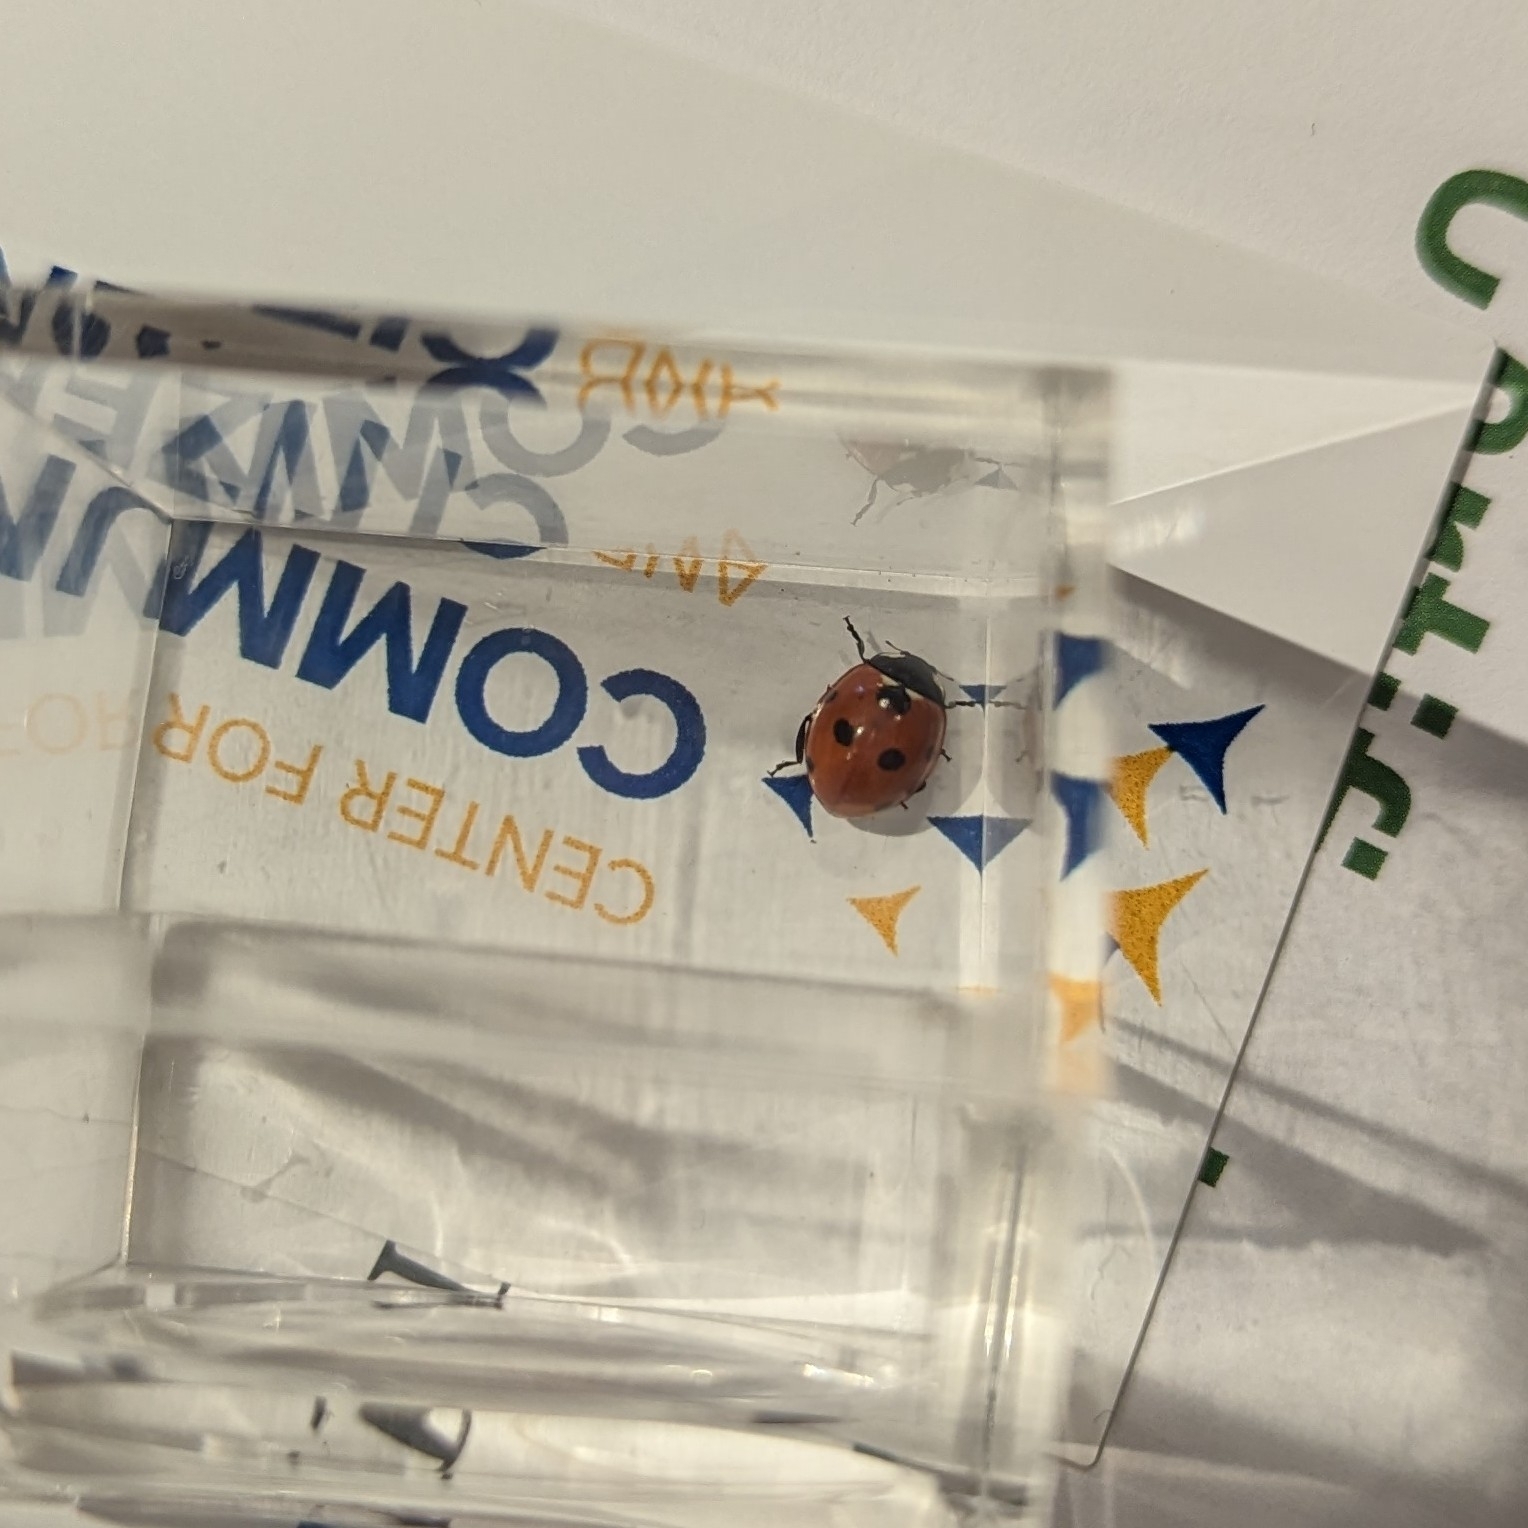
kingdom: Animalia
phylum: Arthropoda
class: Insecta
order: Coleoptera
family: Coccinellidae
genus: Coccinella
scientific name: Coccinella septempunctata
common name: Sevenspotted lady beetle
